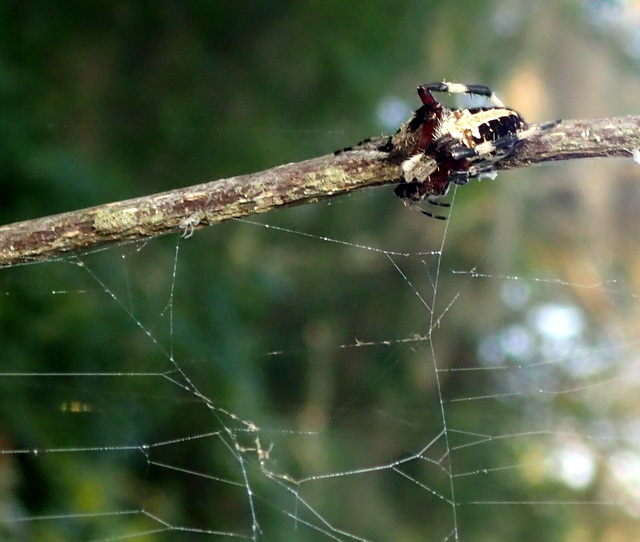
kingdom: Animalia
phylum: Arthropoda
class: Arachnida
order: Araneae
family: Araneidae
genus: Neoscona
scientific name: Neoscona domiciliorum
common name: Red-femured spotted orbweaver
